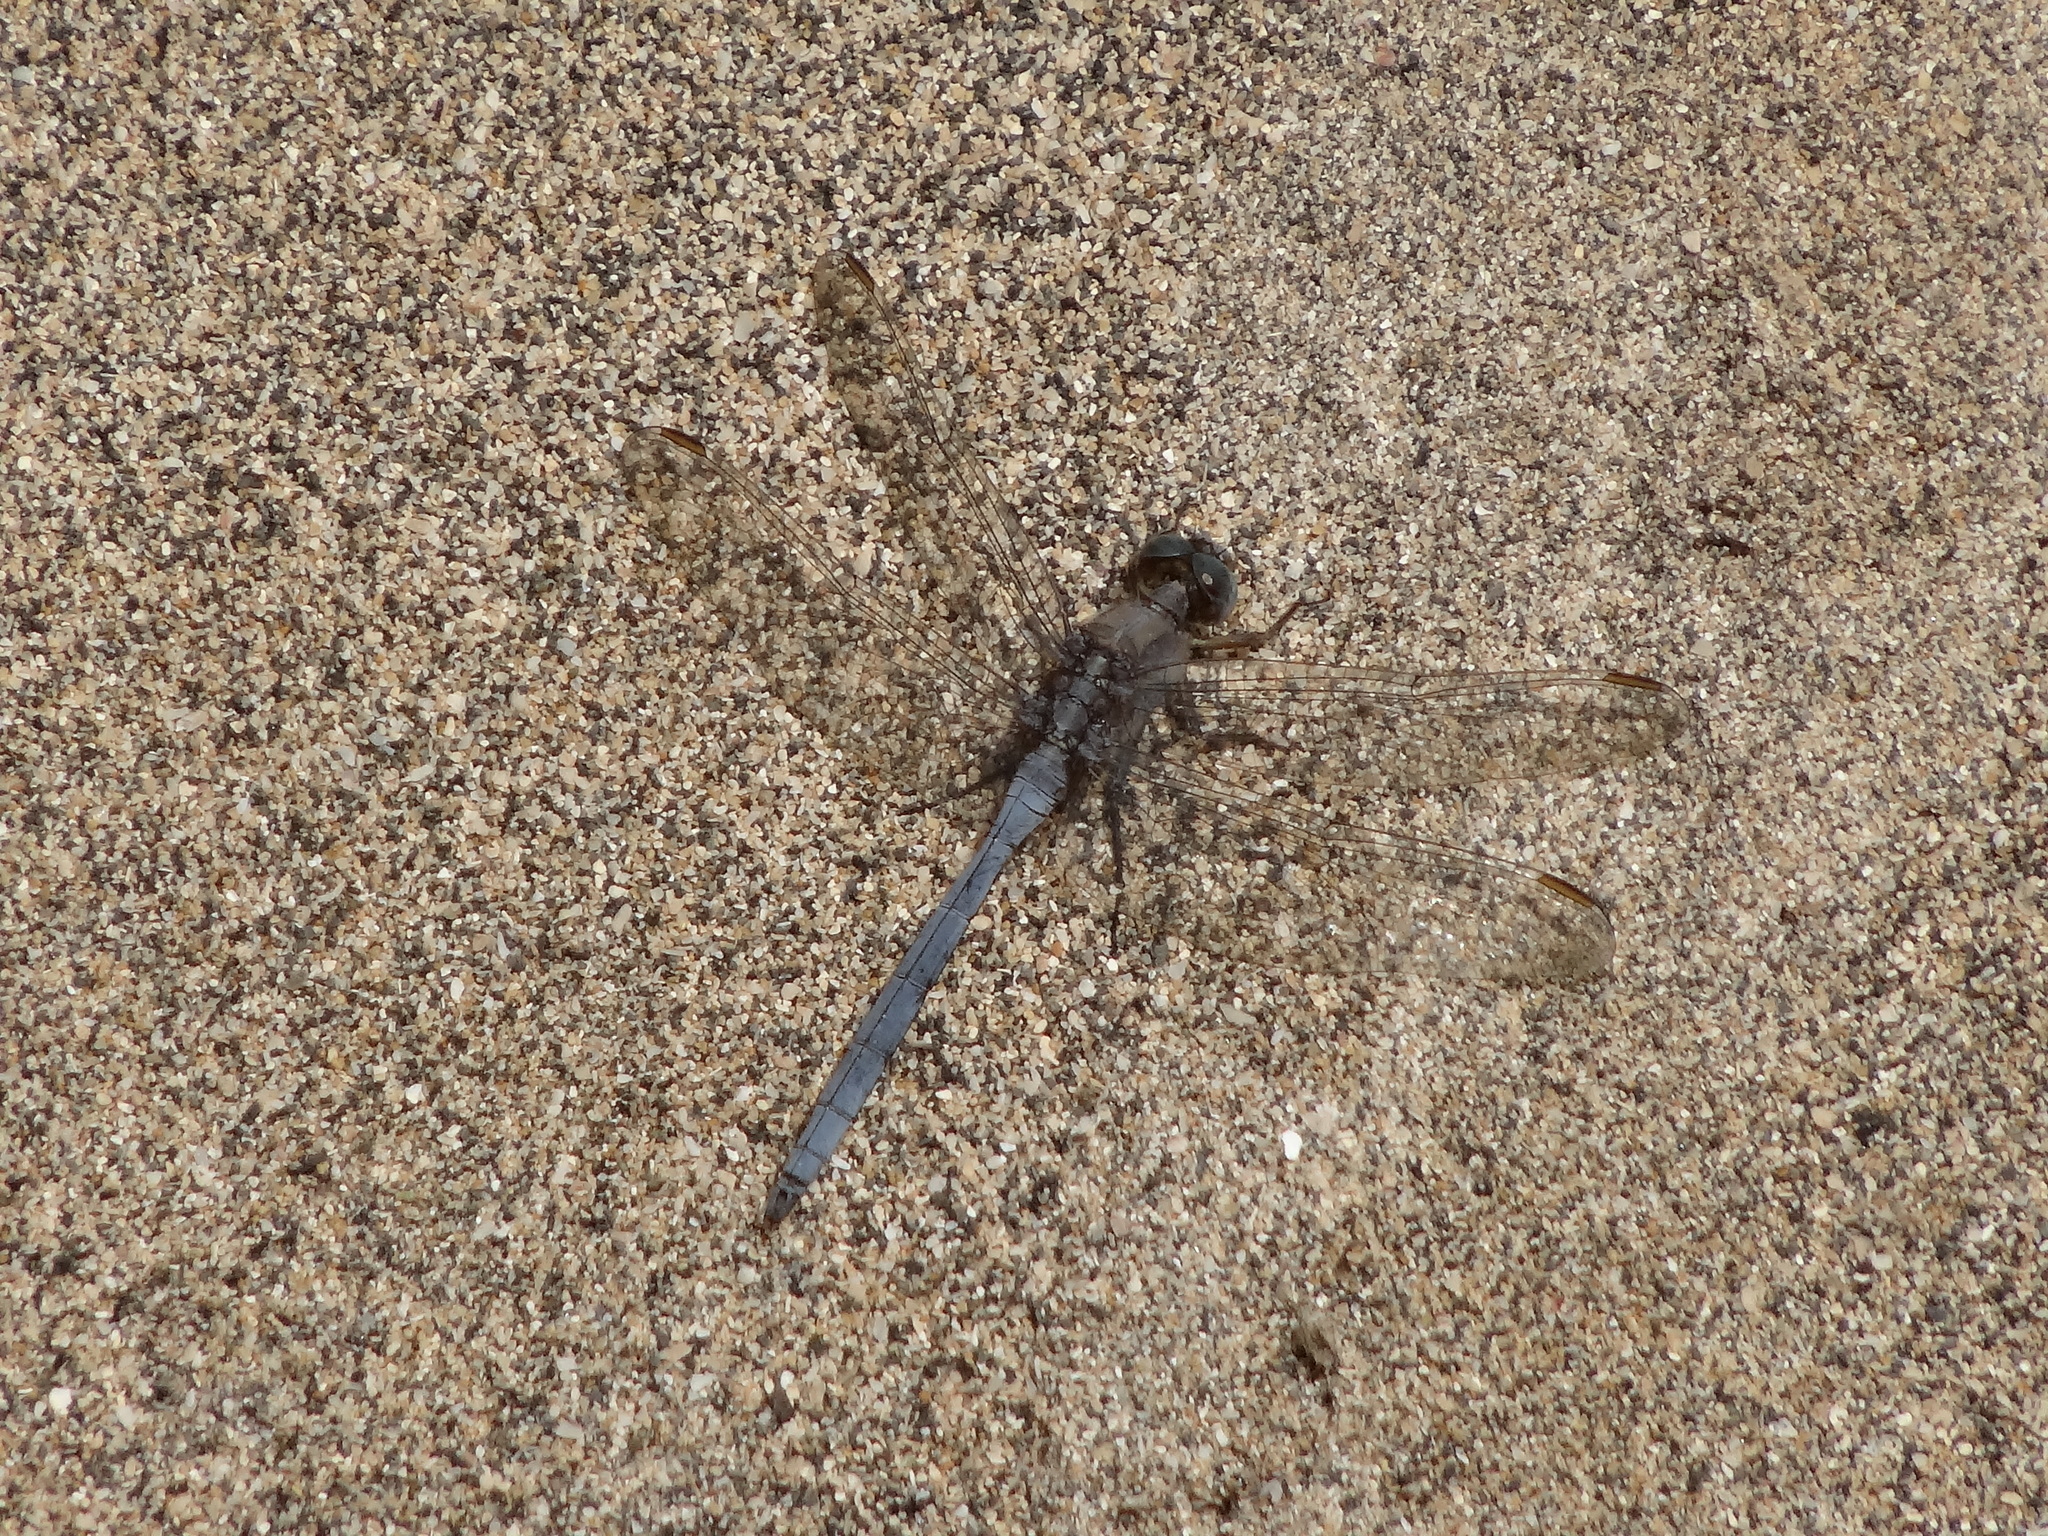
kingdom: Animalia
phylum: Arthropoda
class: Insecta
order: Odonata
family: Libellulidae
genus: Orthetrum
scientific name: Orthetrum chrysostigma
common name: Epaulet skimmer
